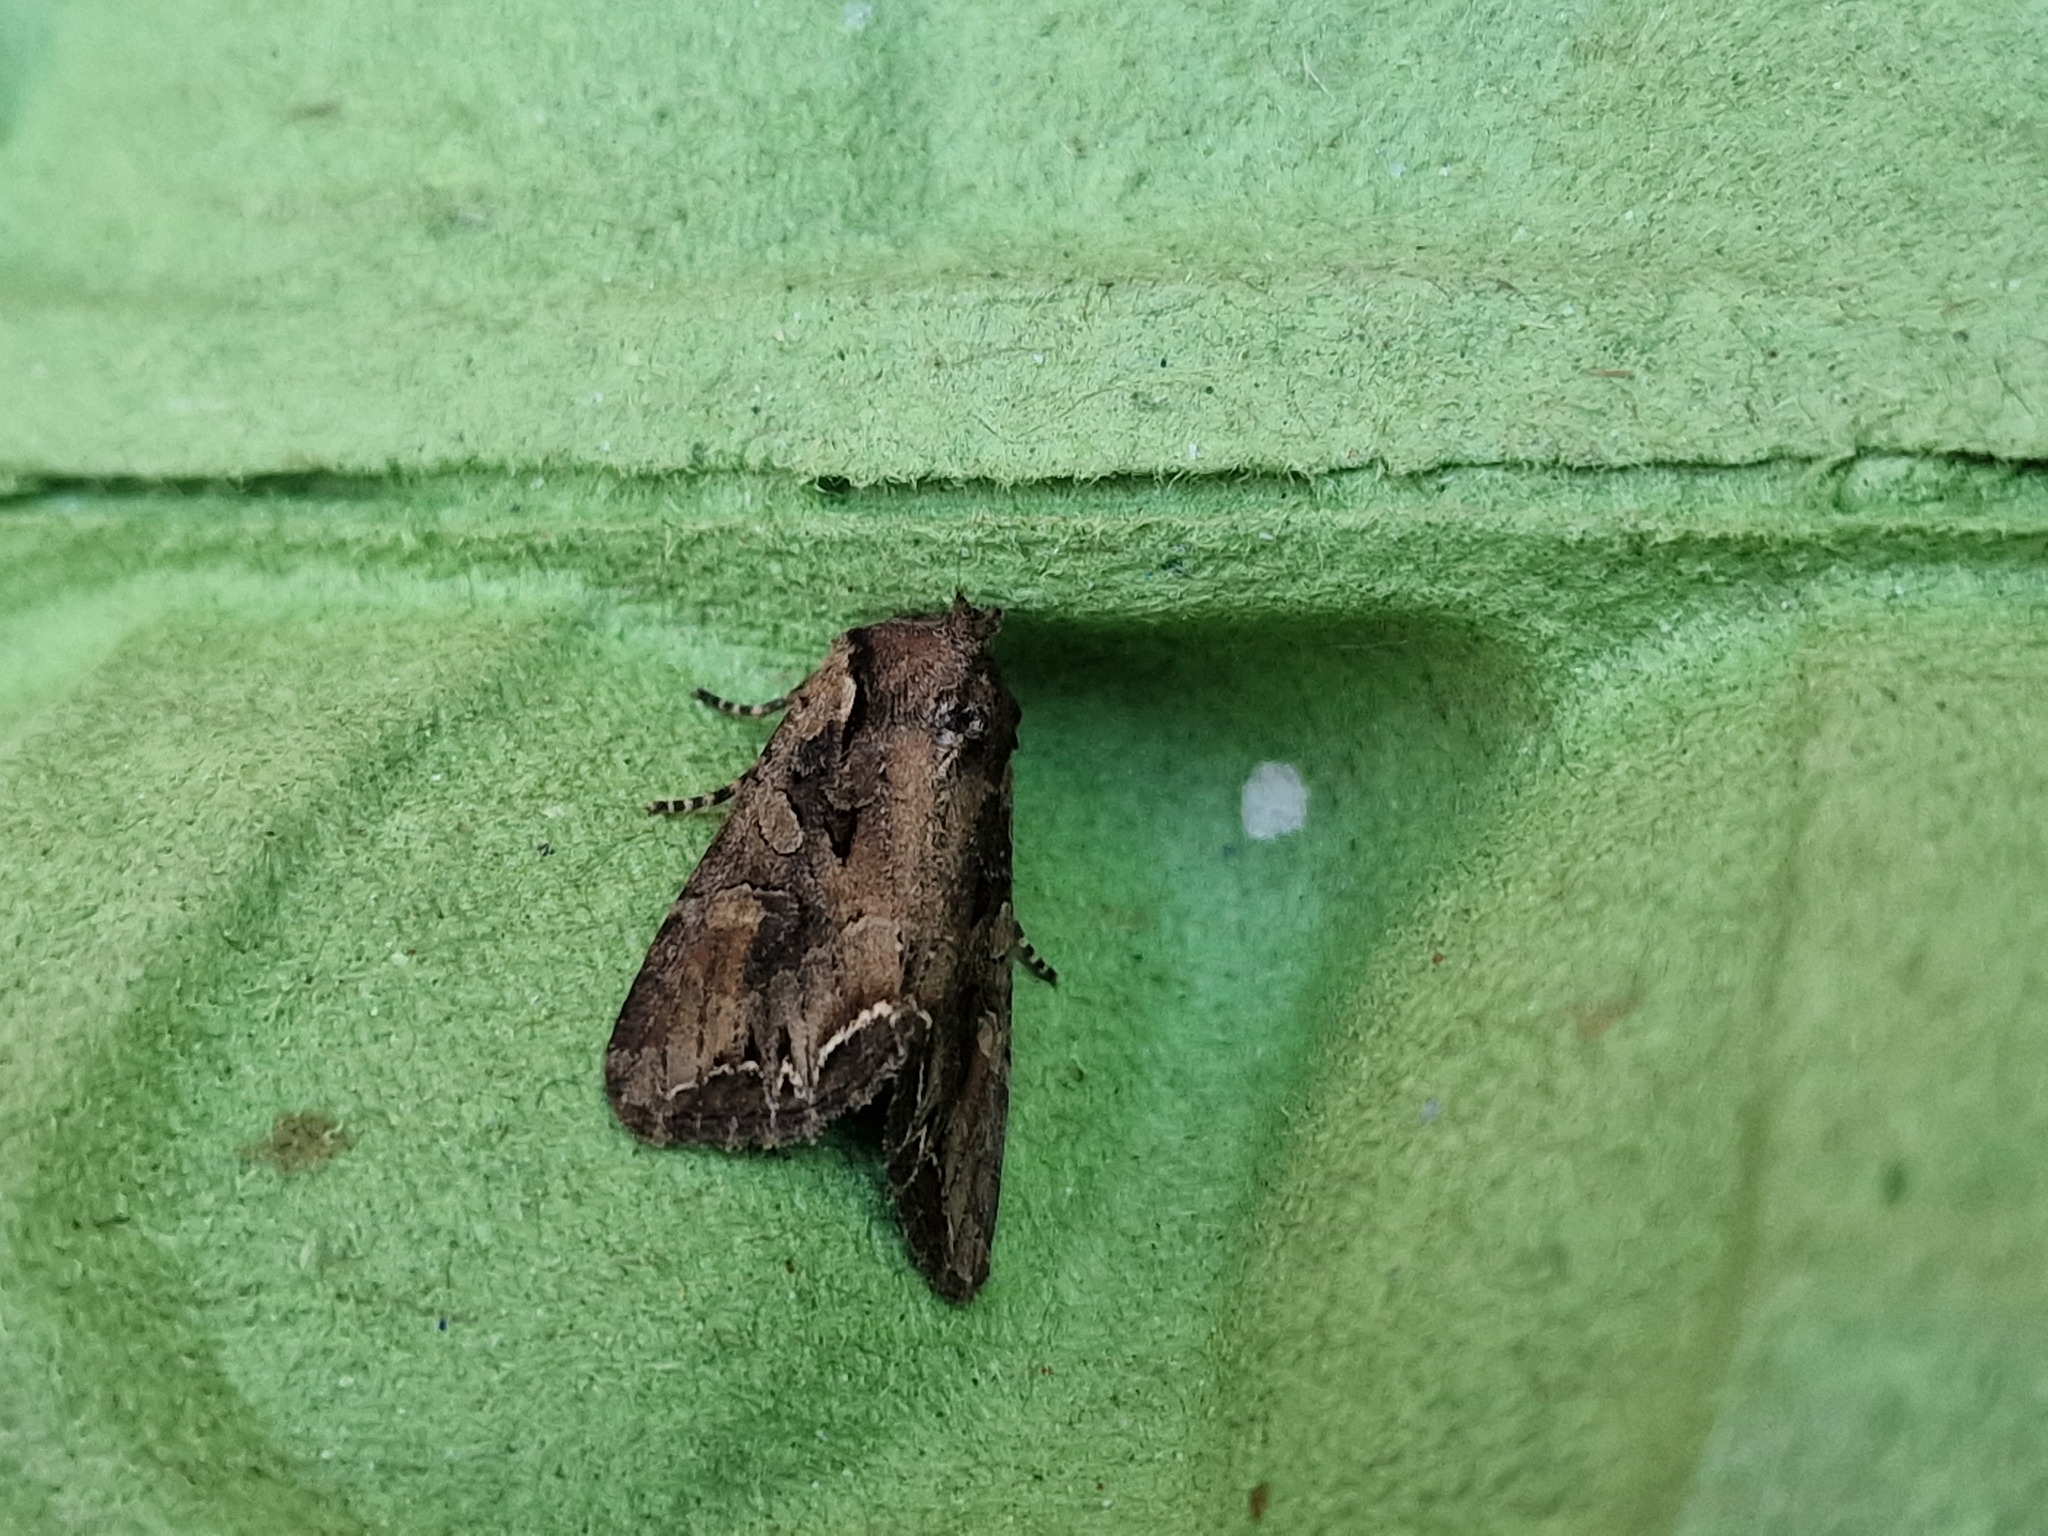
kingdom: Animalia
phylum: Arthropoda
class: Insecta
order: Lepidoptera
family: Noctuidae
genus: Lacanobia
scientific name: Lacanobia suasa
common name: Dog's tooth
